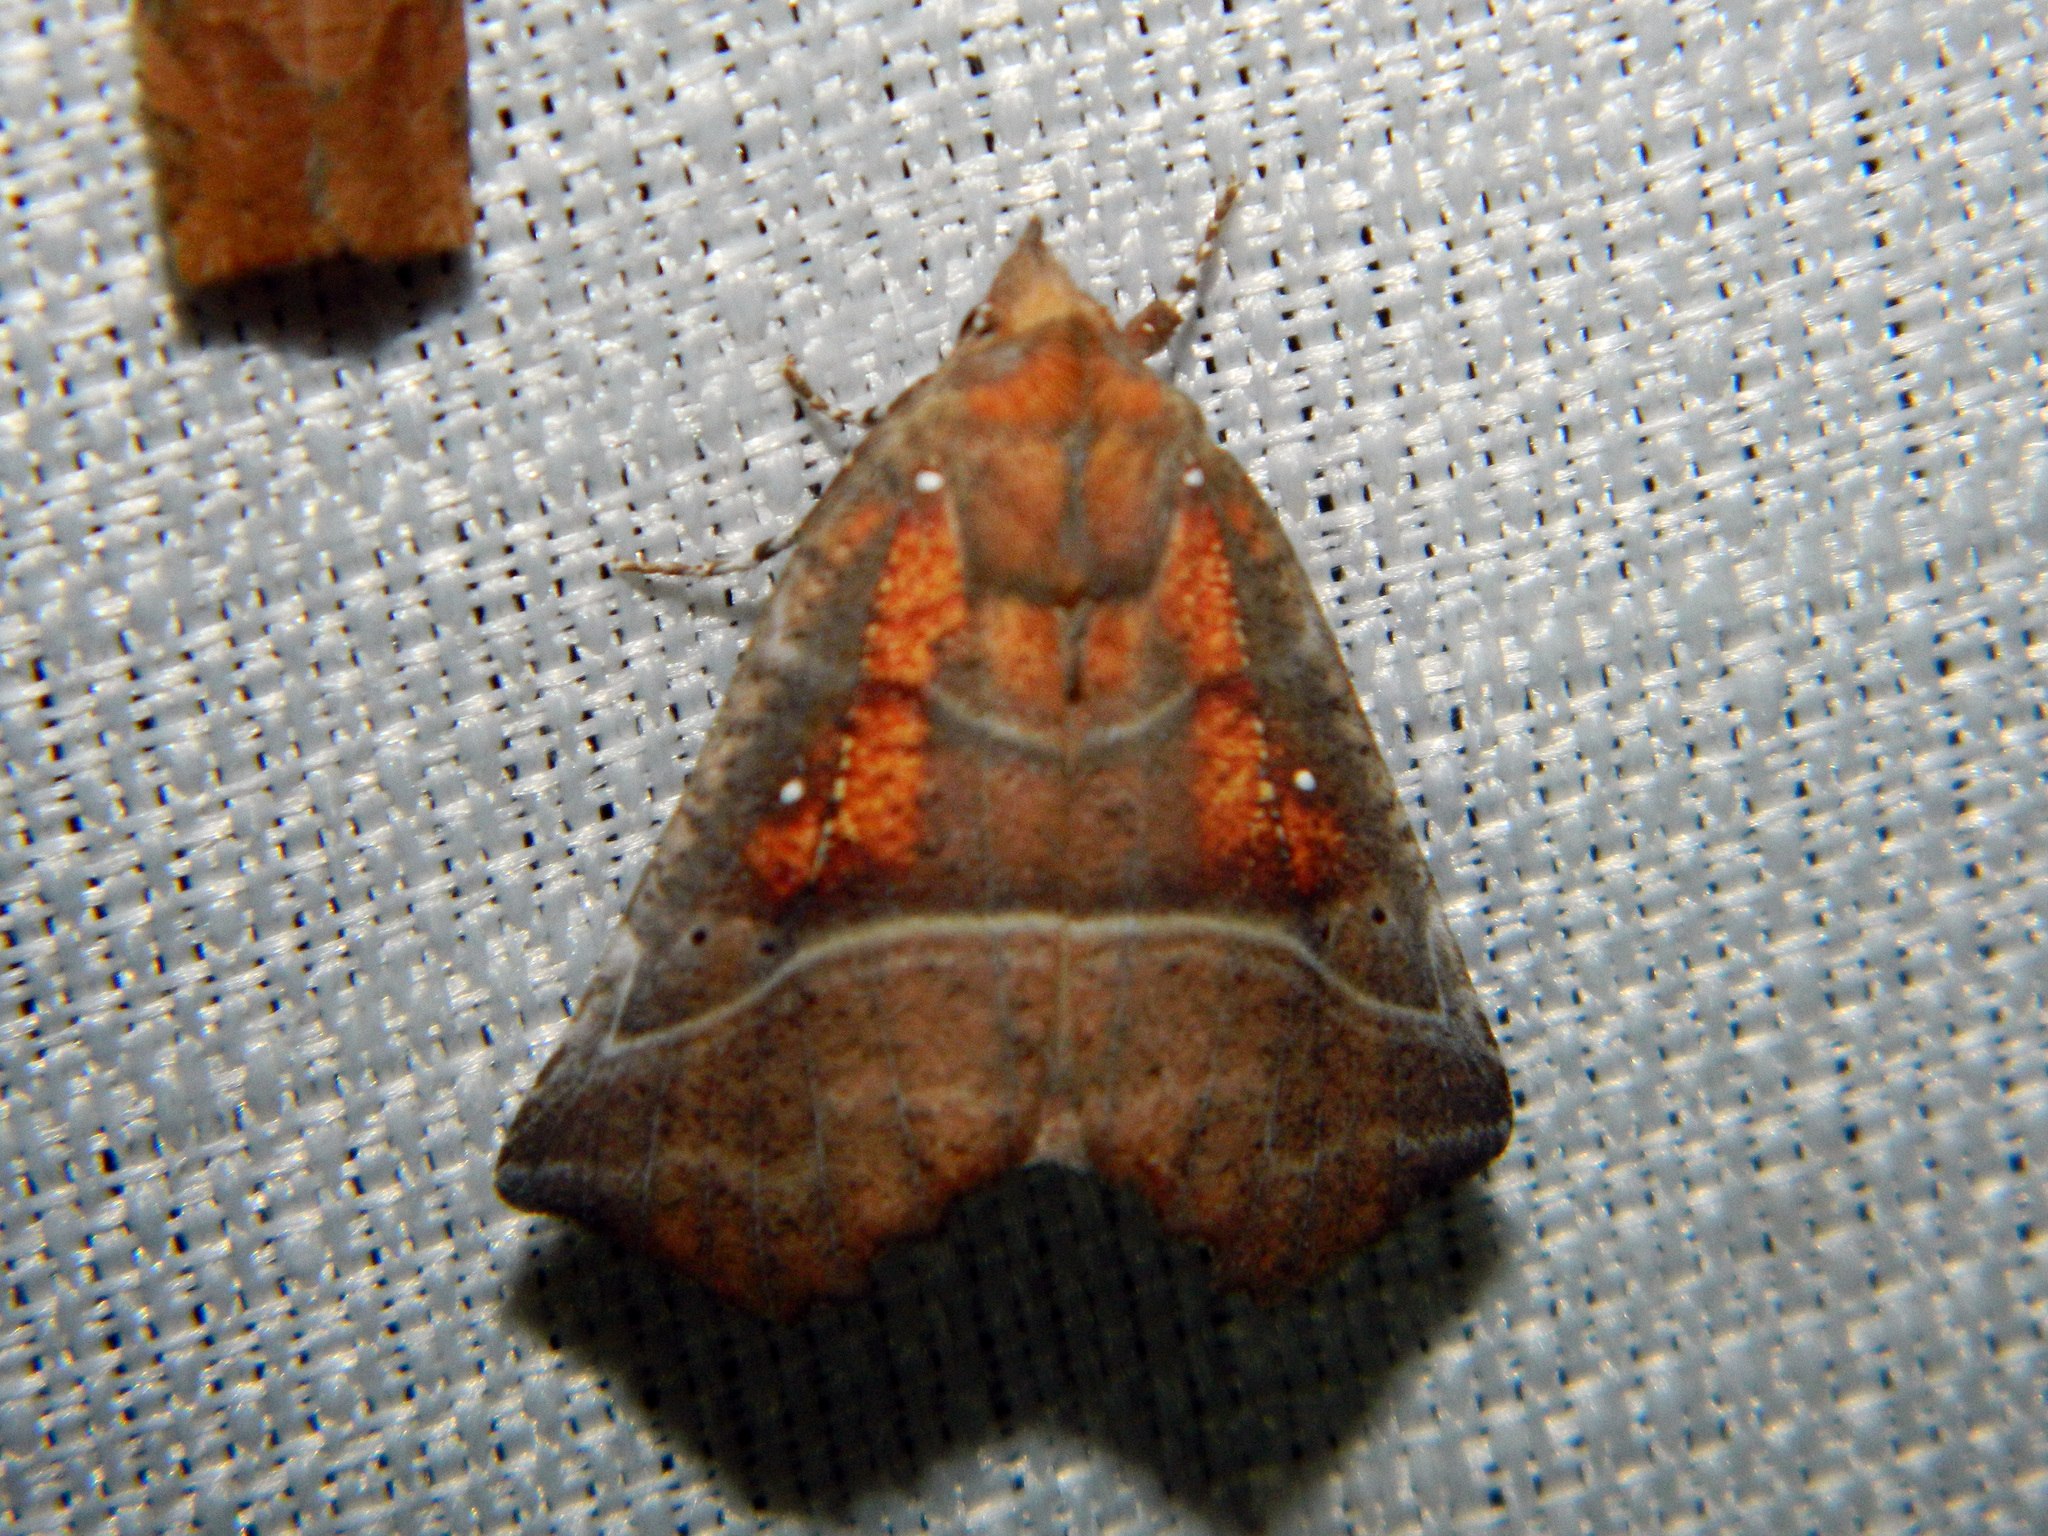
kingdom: Animalia
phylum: Arthropoda
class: Insecta
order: Lepidoptera
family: Erebidae
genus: Scoliopteryx
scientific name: Scoliopteryx libatrix
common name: Herald
